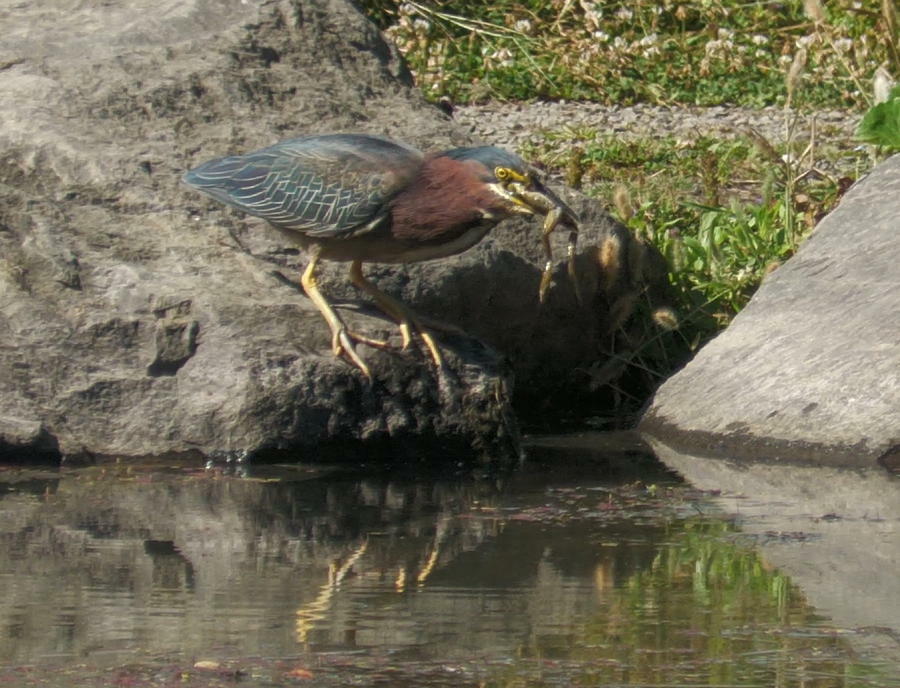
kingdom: Animalia
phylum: Chordata
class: Aves
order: Pelecaniformes
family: Ardeidae
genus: Butorides
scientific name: Butorides virescens
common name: Green heron
